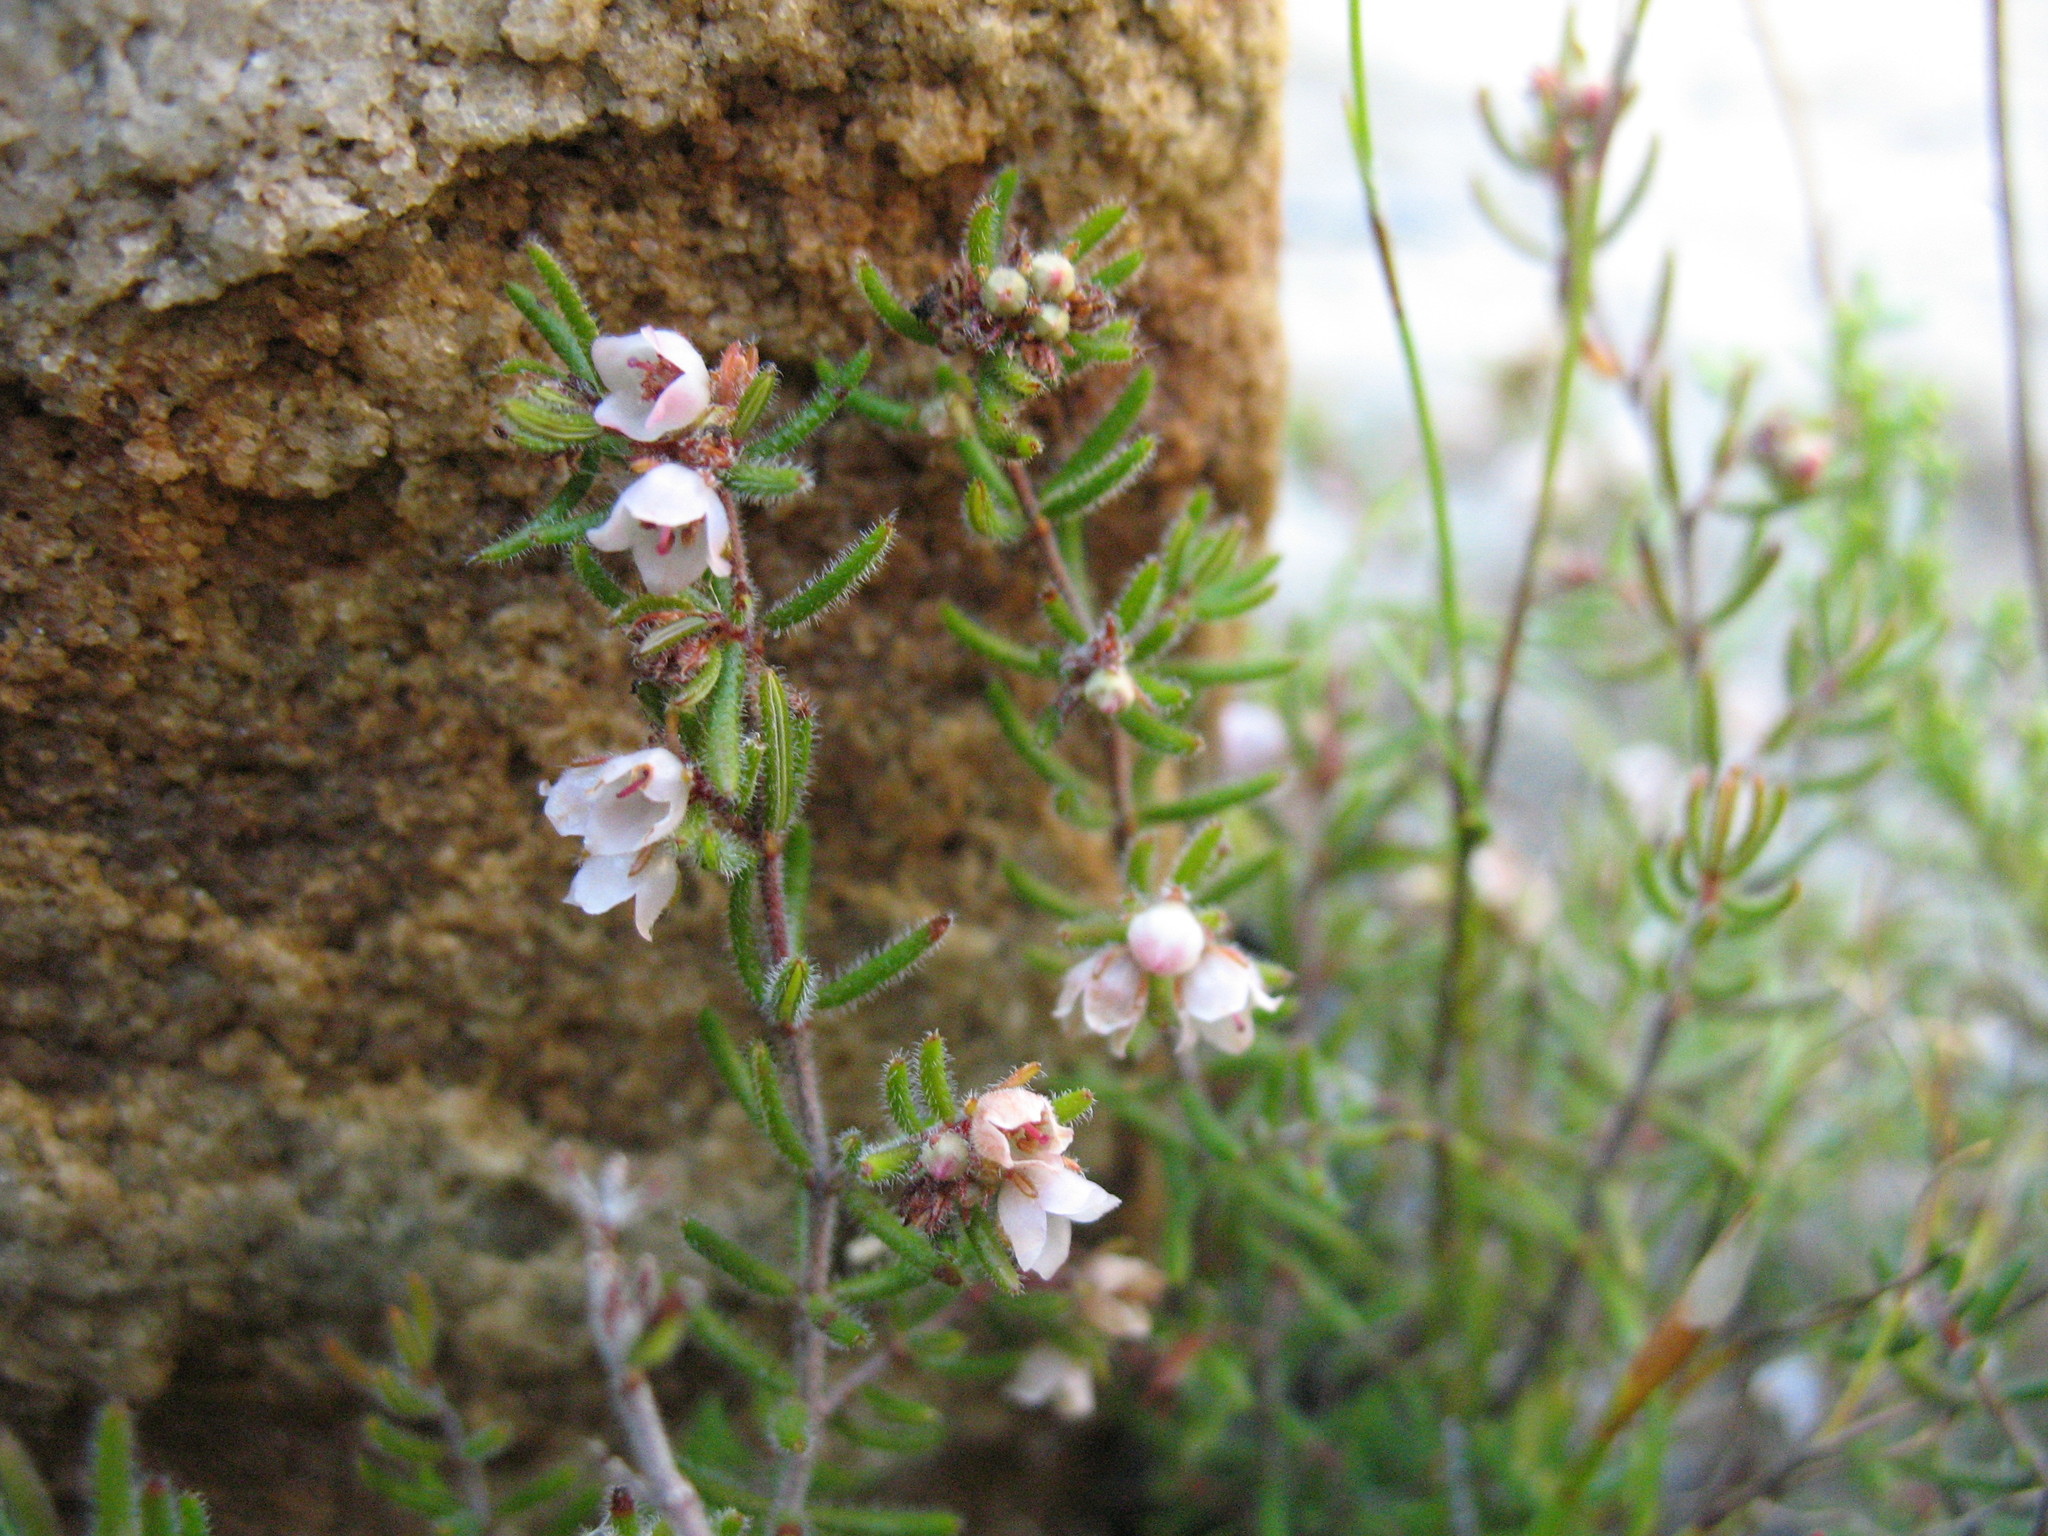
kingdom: Plantae
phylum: Tracheophyta
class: Magnoliopsida
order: Ericales
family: Ericaceae
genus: Erica
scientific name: Erica distorta
